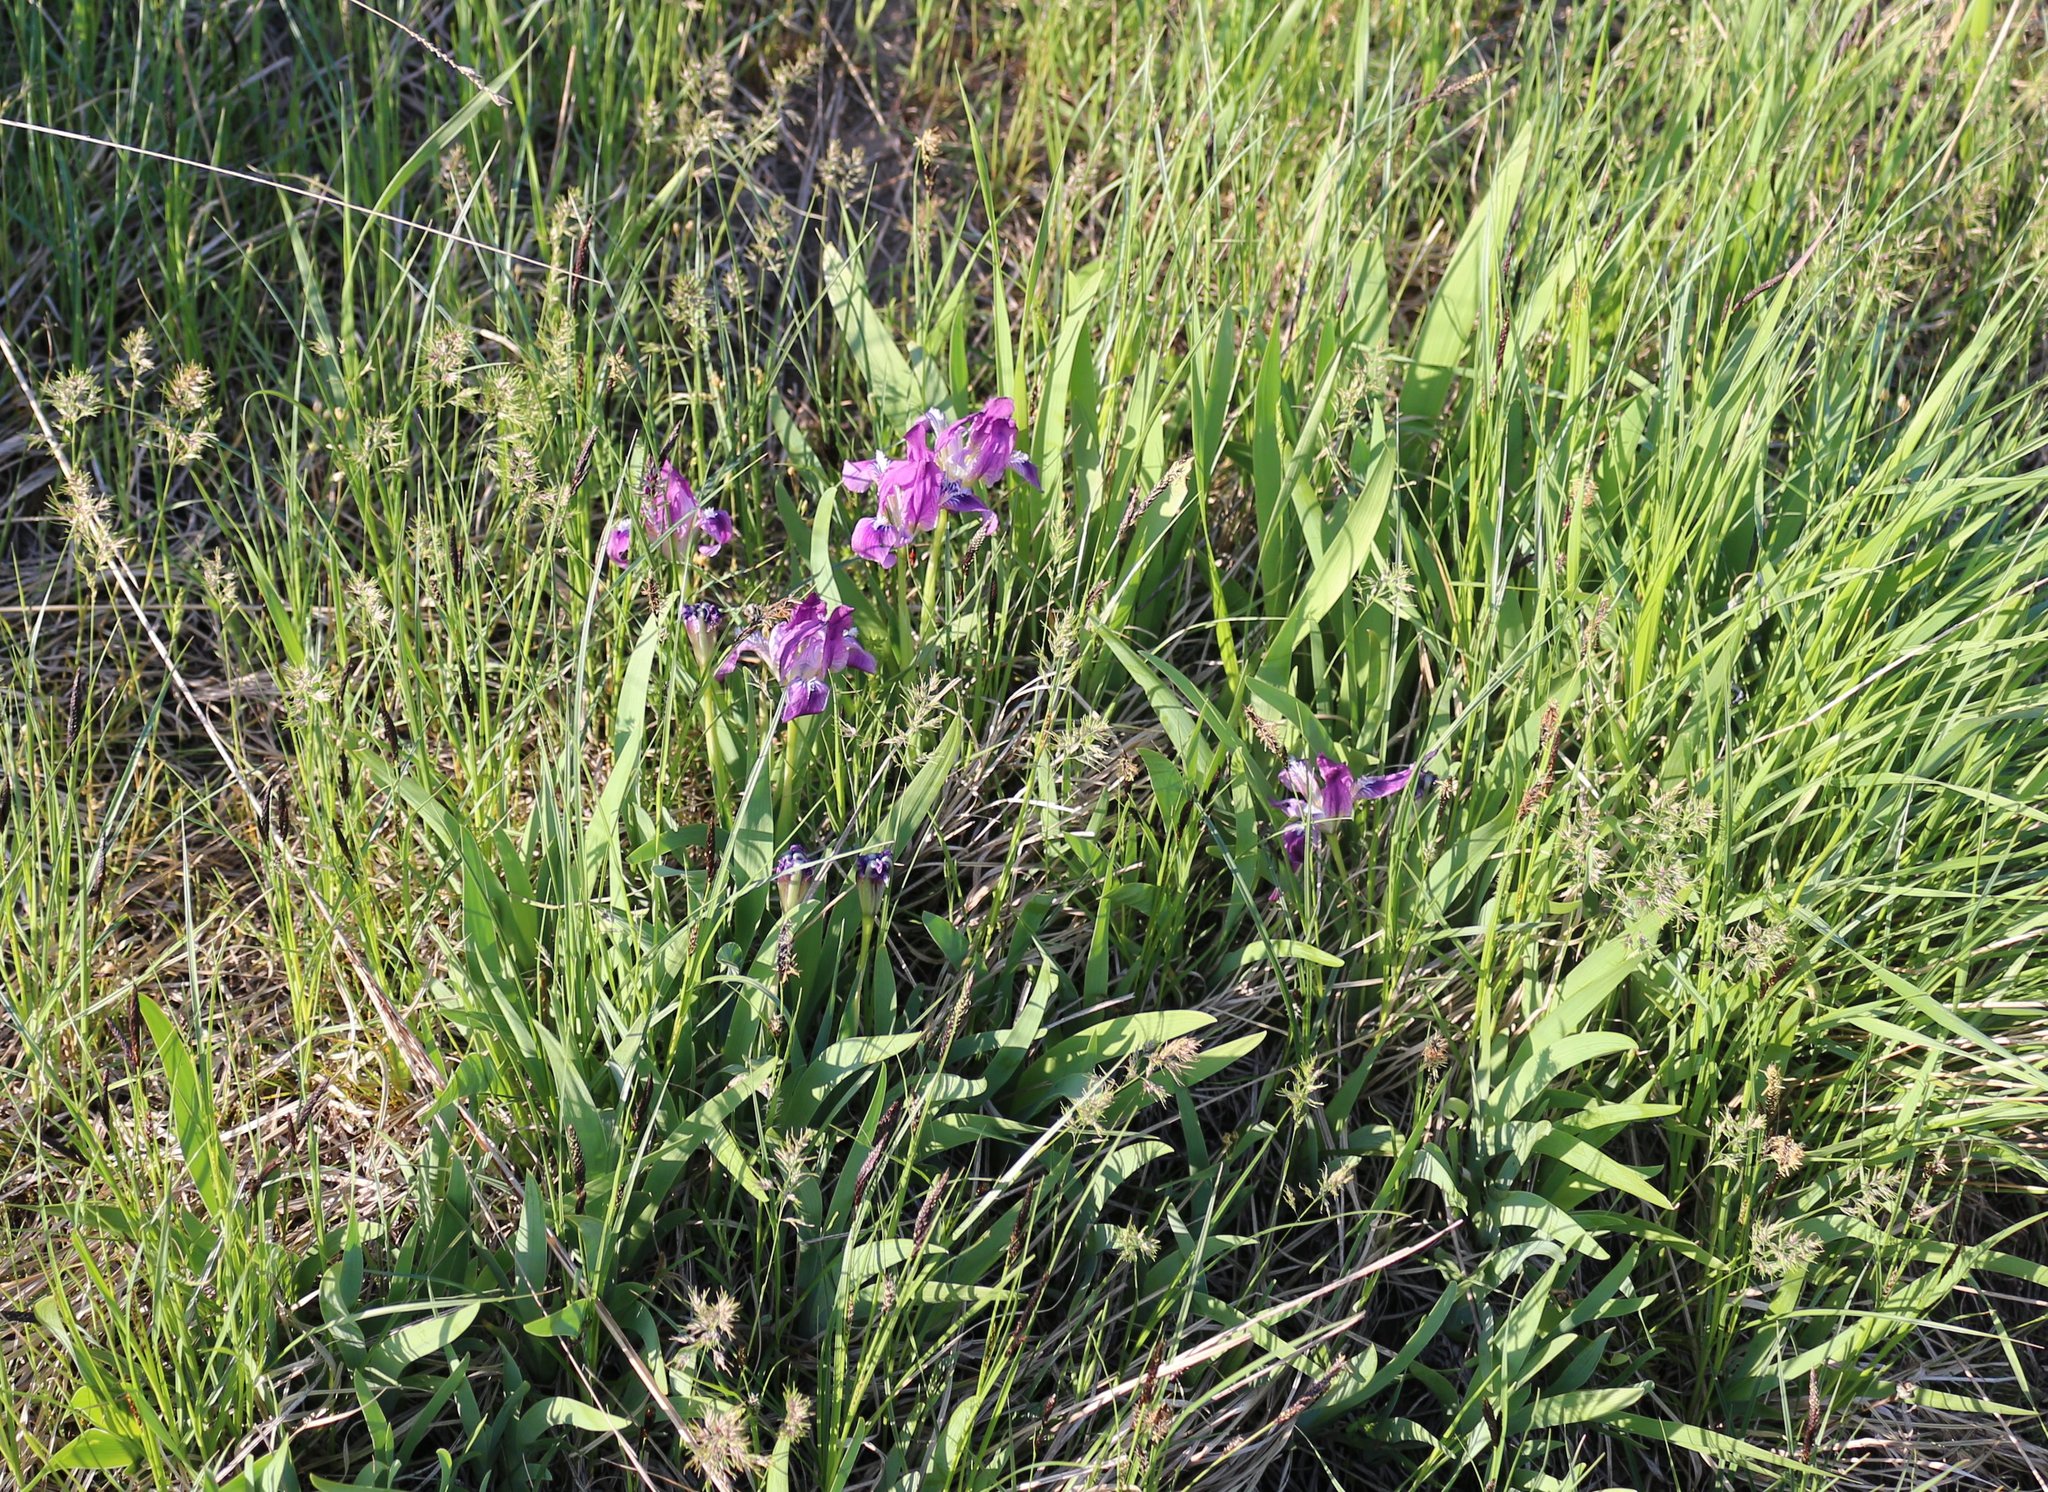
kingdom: Plantae
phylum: Tracheophyta
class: Liliopsida
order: Asparagales
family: Iridaceae
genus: Iris
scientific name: Iris pumila
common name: Dwarf iris
